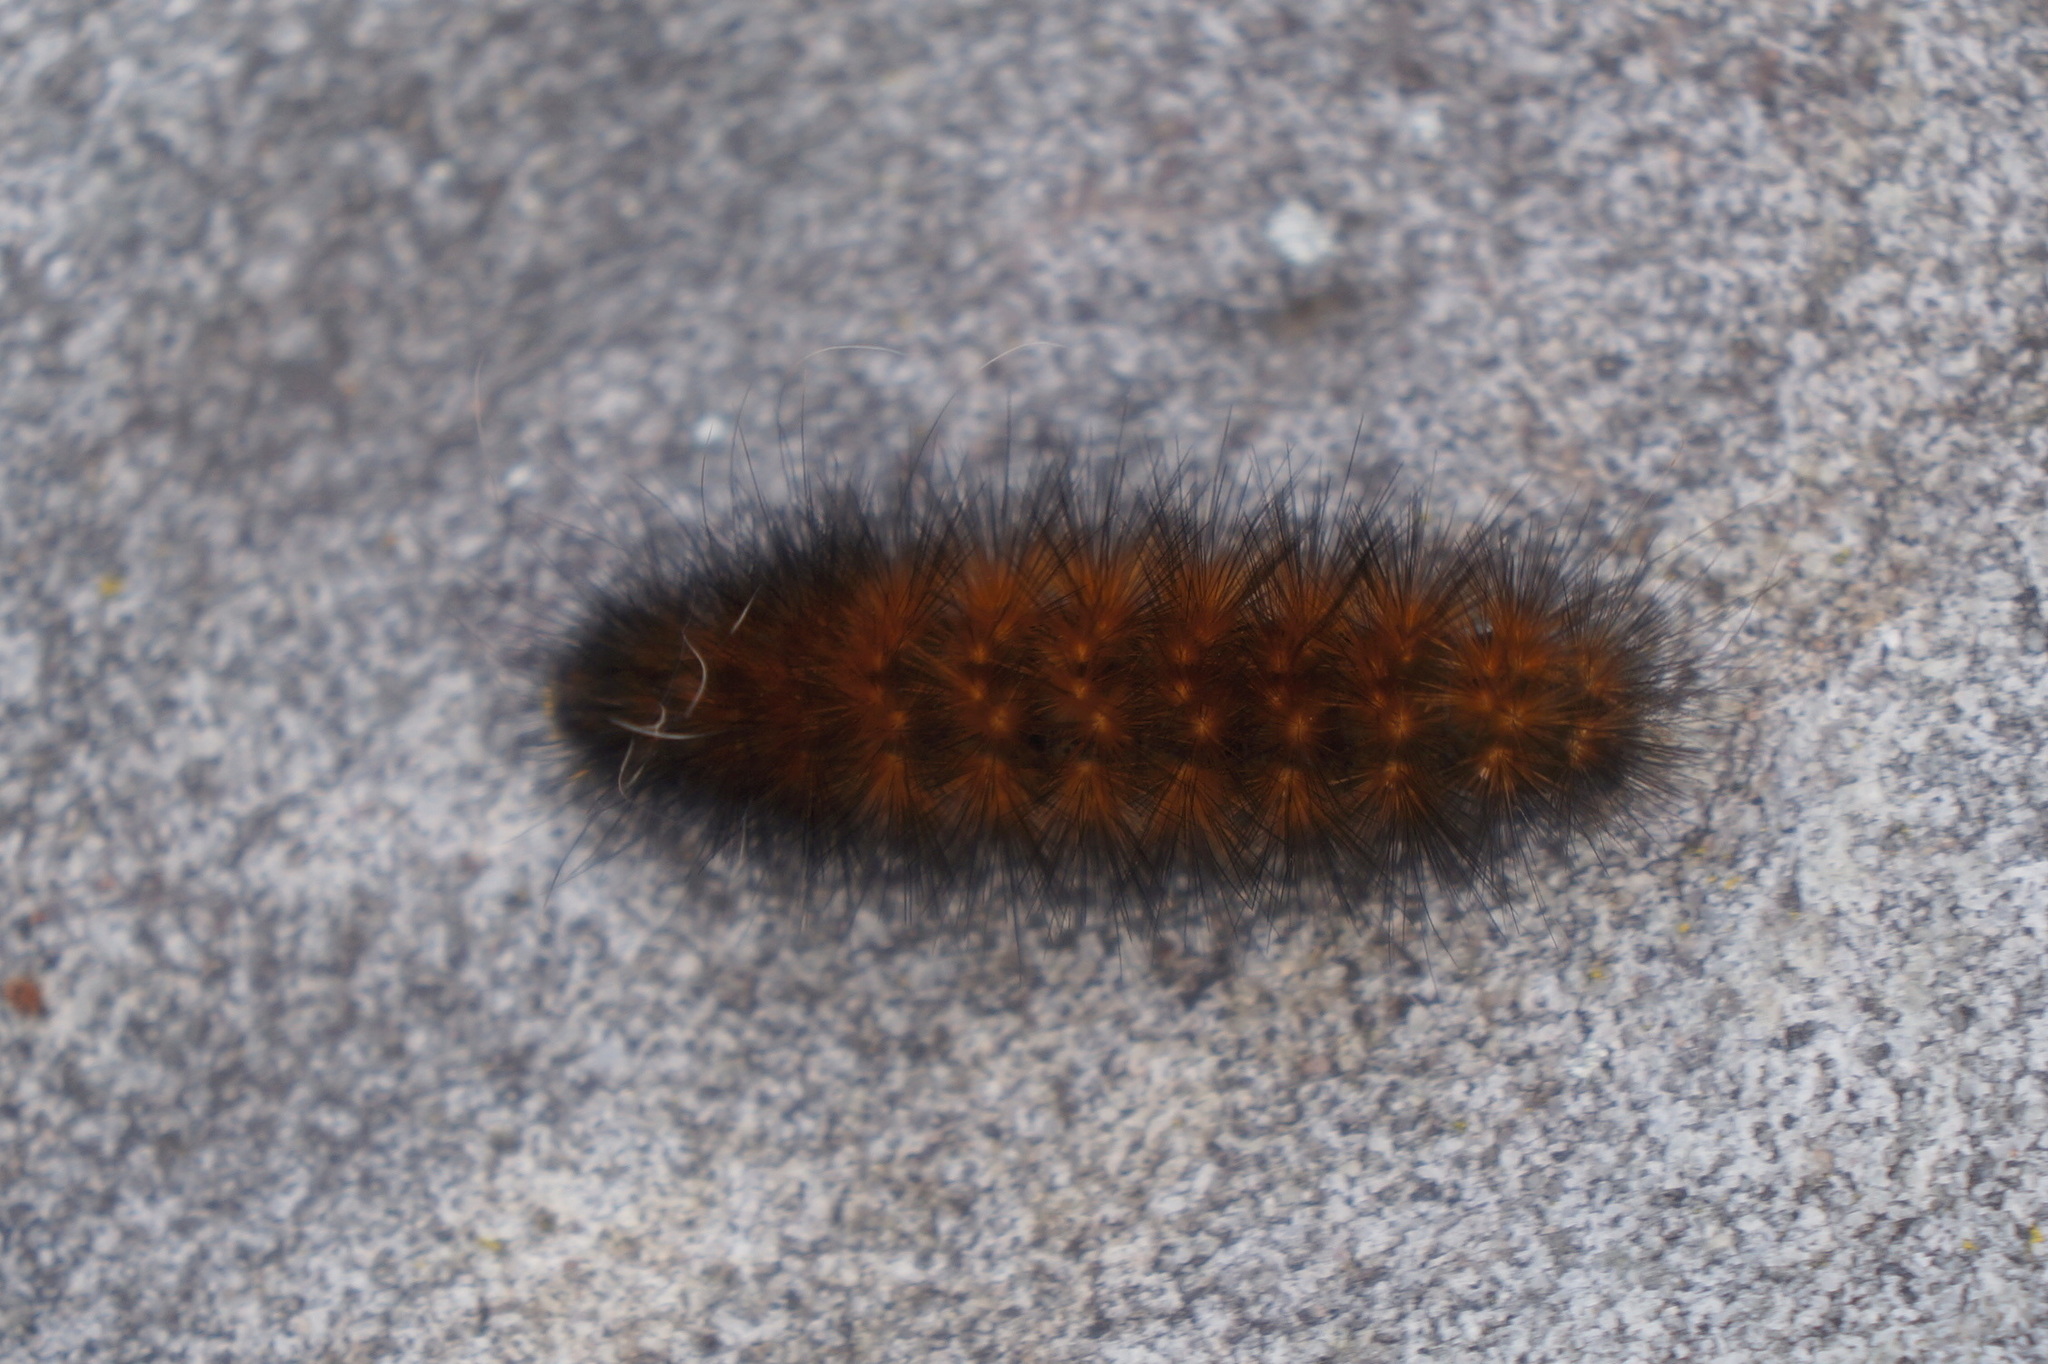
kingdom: Animalia
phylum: Arthropoda
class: Insecta
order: Lepidoptera
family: Erebidae
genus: Spilosoma
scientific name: Spilosoma virginica
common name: Virginia tiger moth
